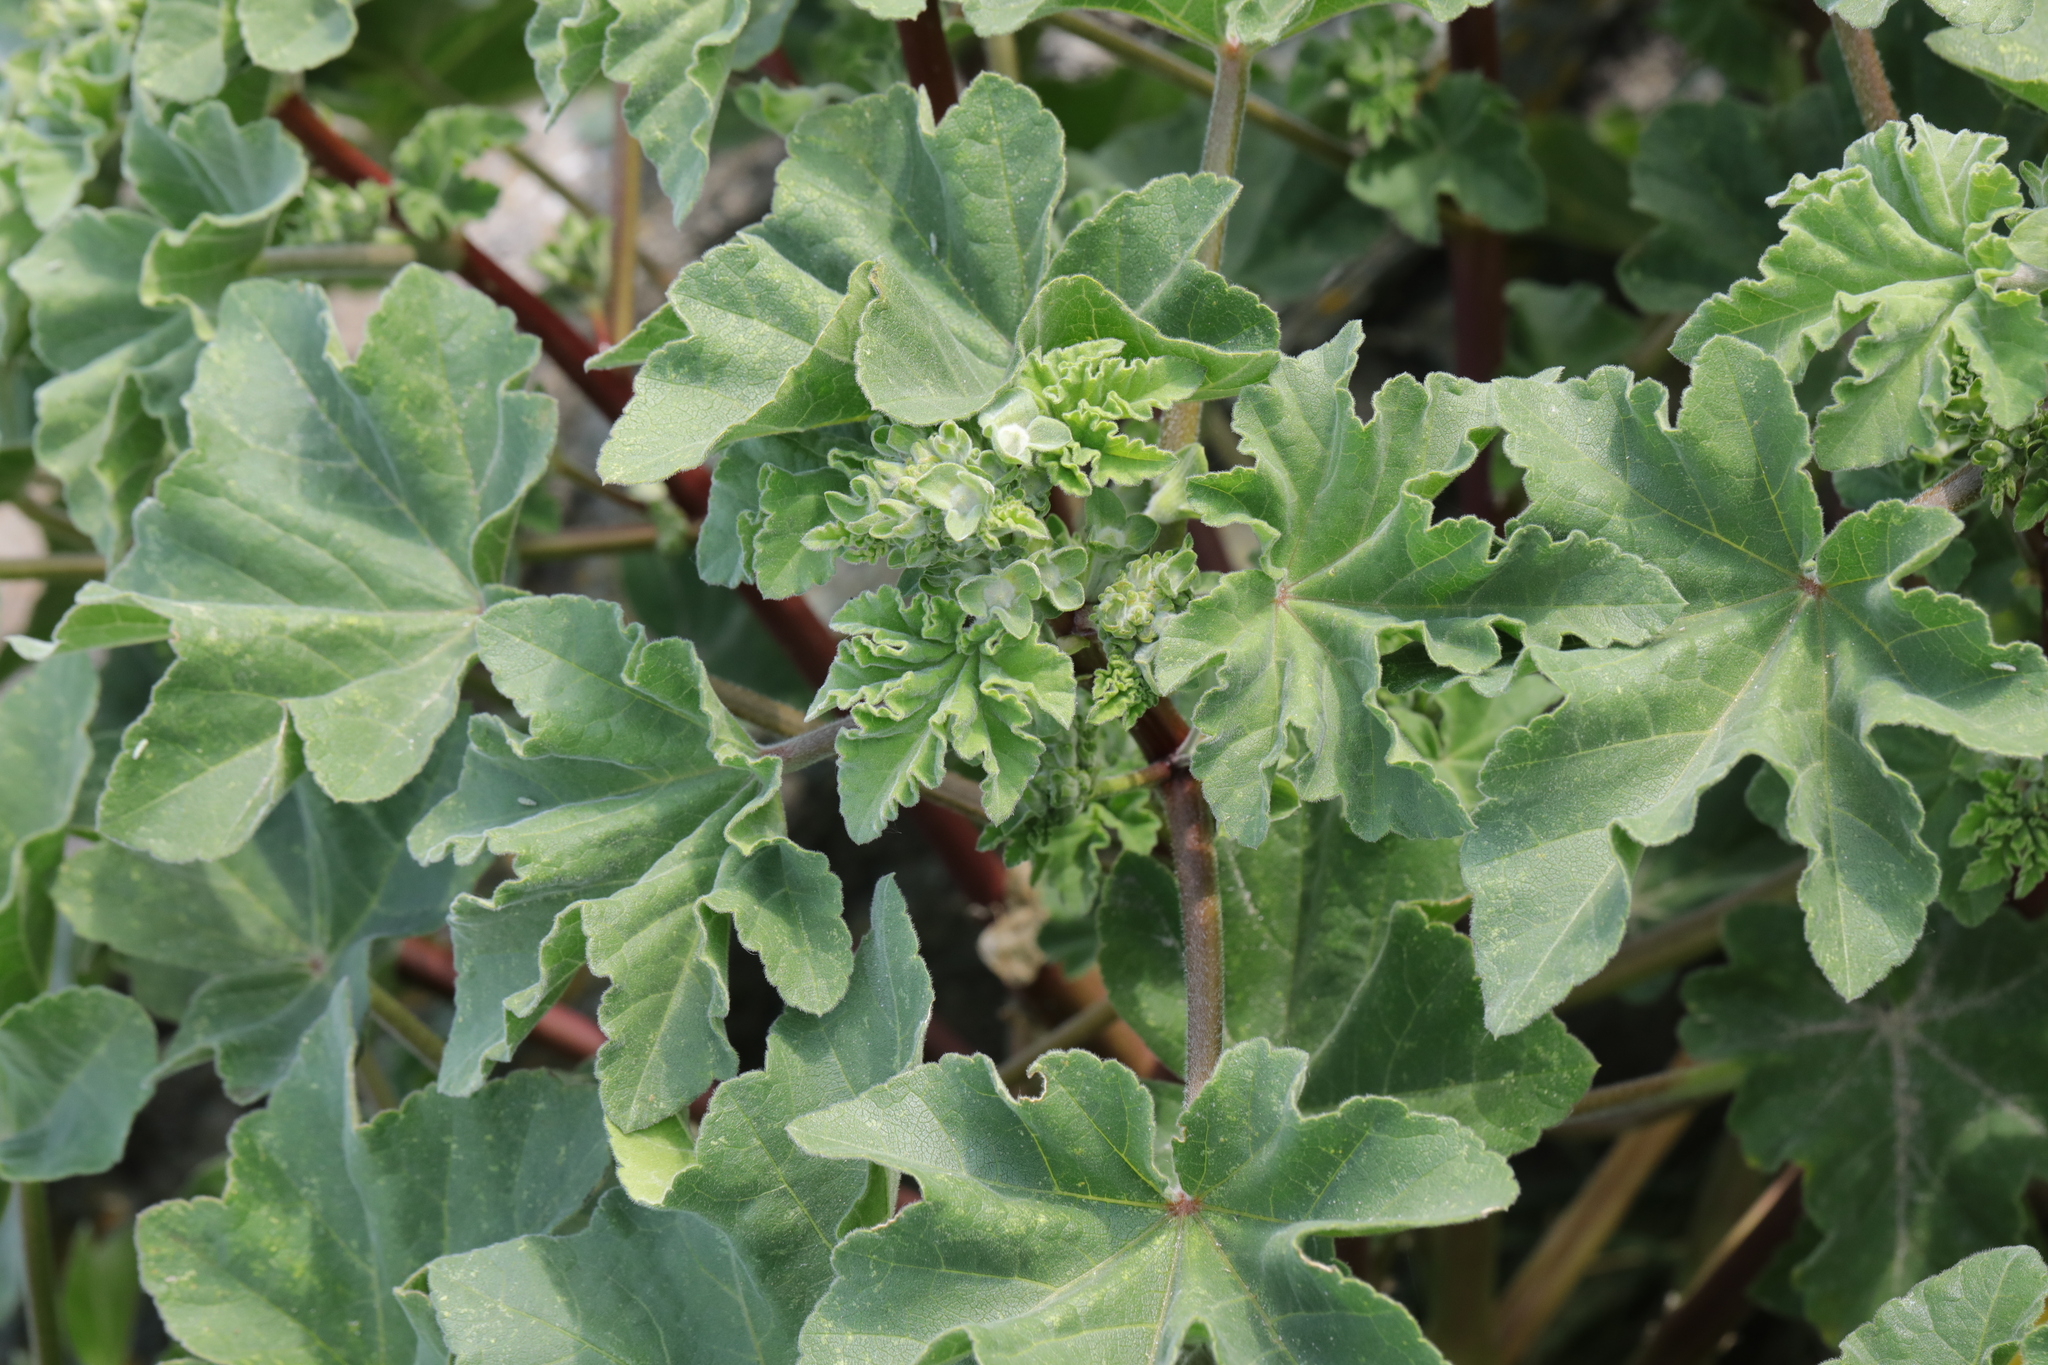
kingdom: Plantae
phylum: Tracheophyta
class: Magnoliopsida
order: Malvales
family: Malvaceae
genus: Malva
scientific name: Malva arborea
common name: Tree mallow
